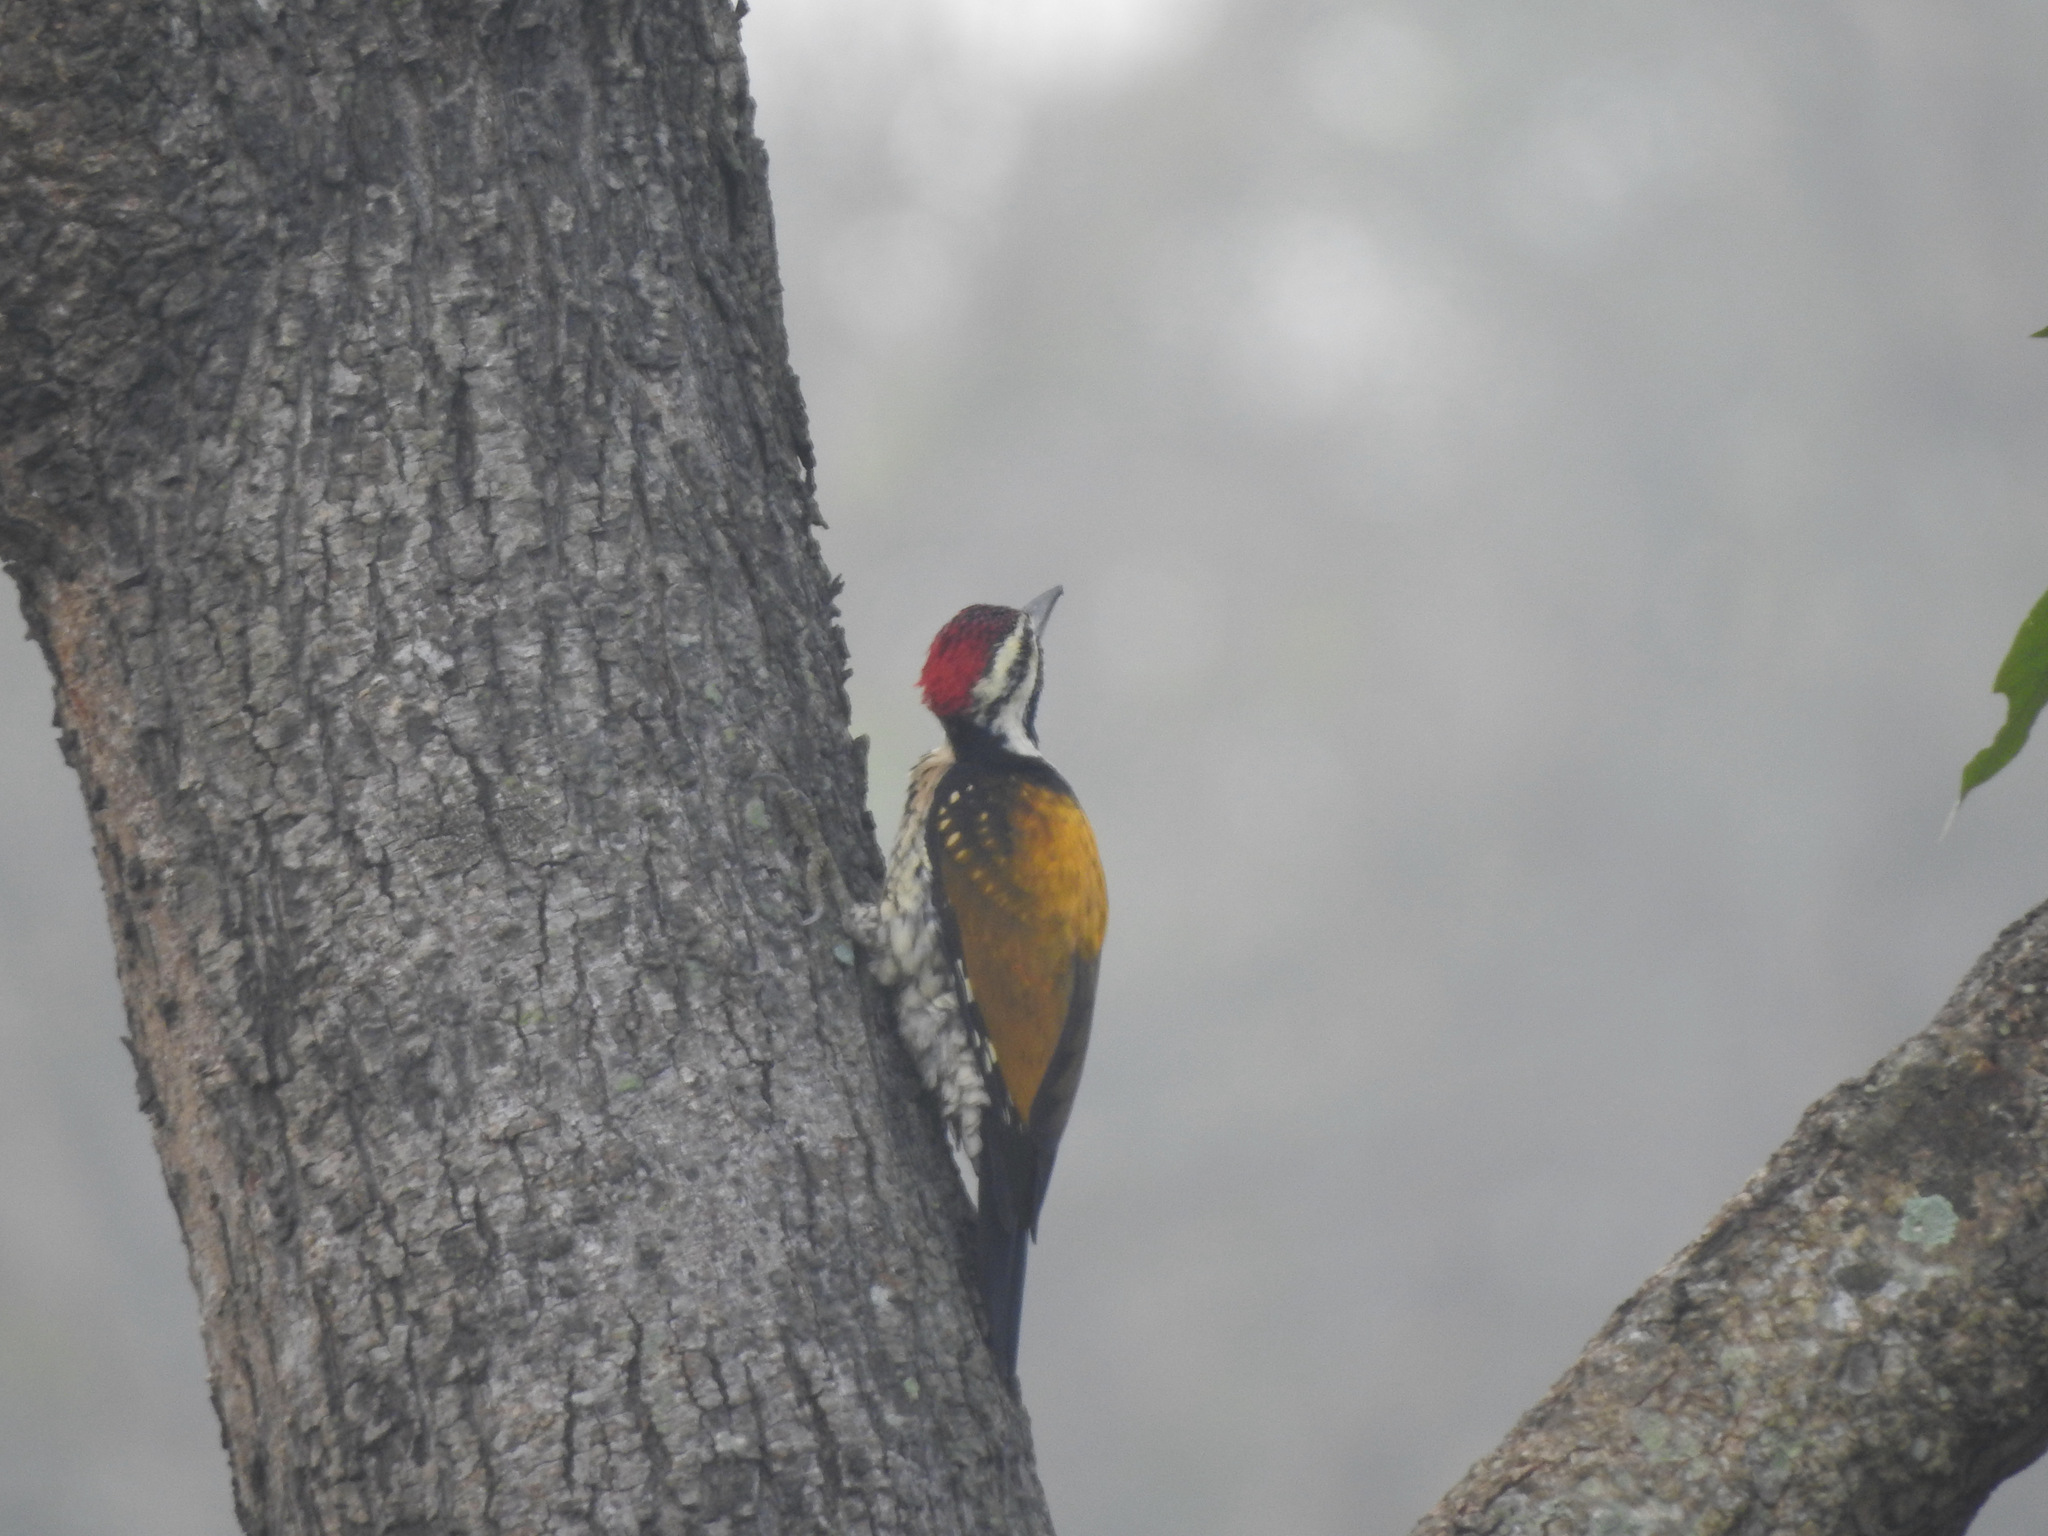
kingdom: Animalia
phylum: Chordata
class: Aves
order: Piciformes
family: Picidae
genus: Dinopium
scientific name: Dinopium benghalense
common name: Black-rumped flameback
